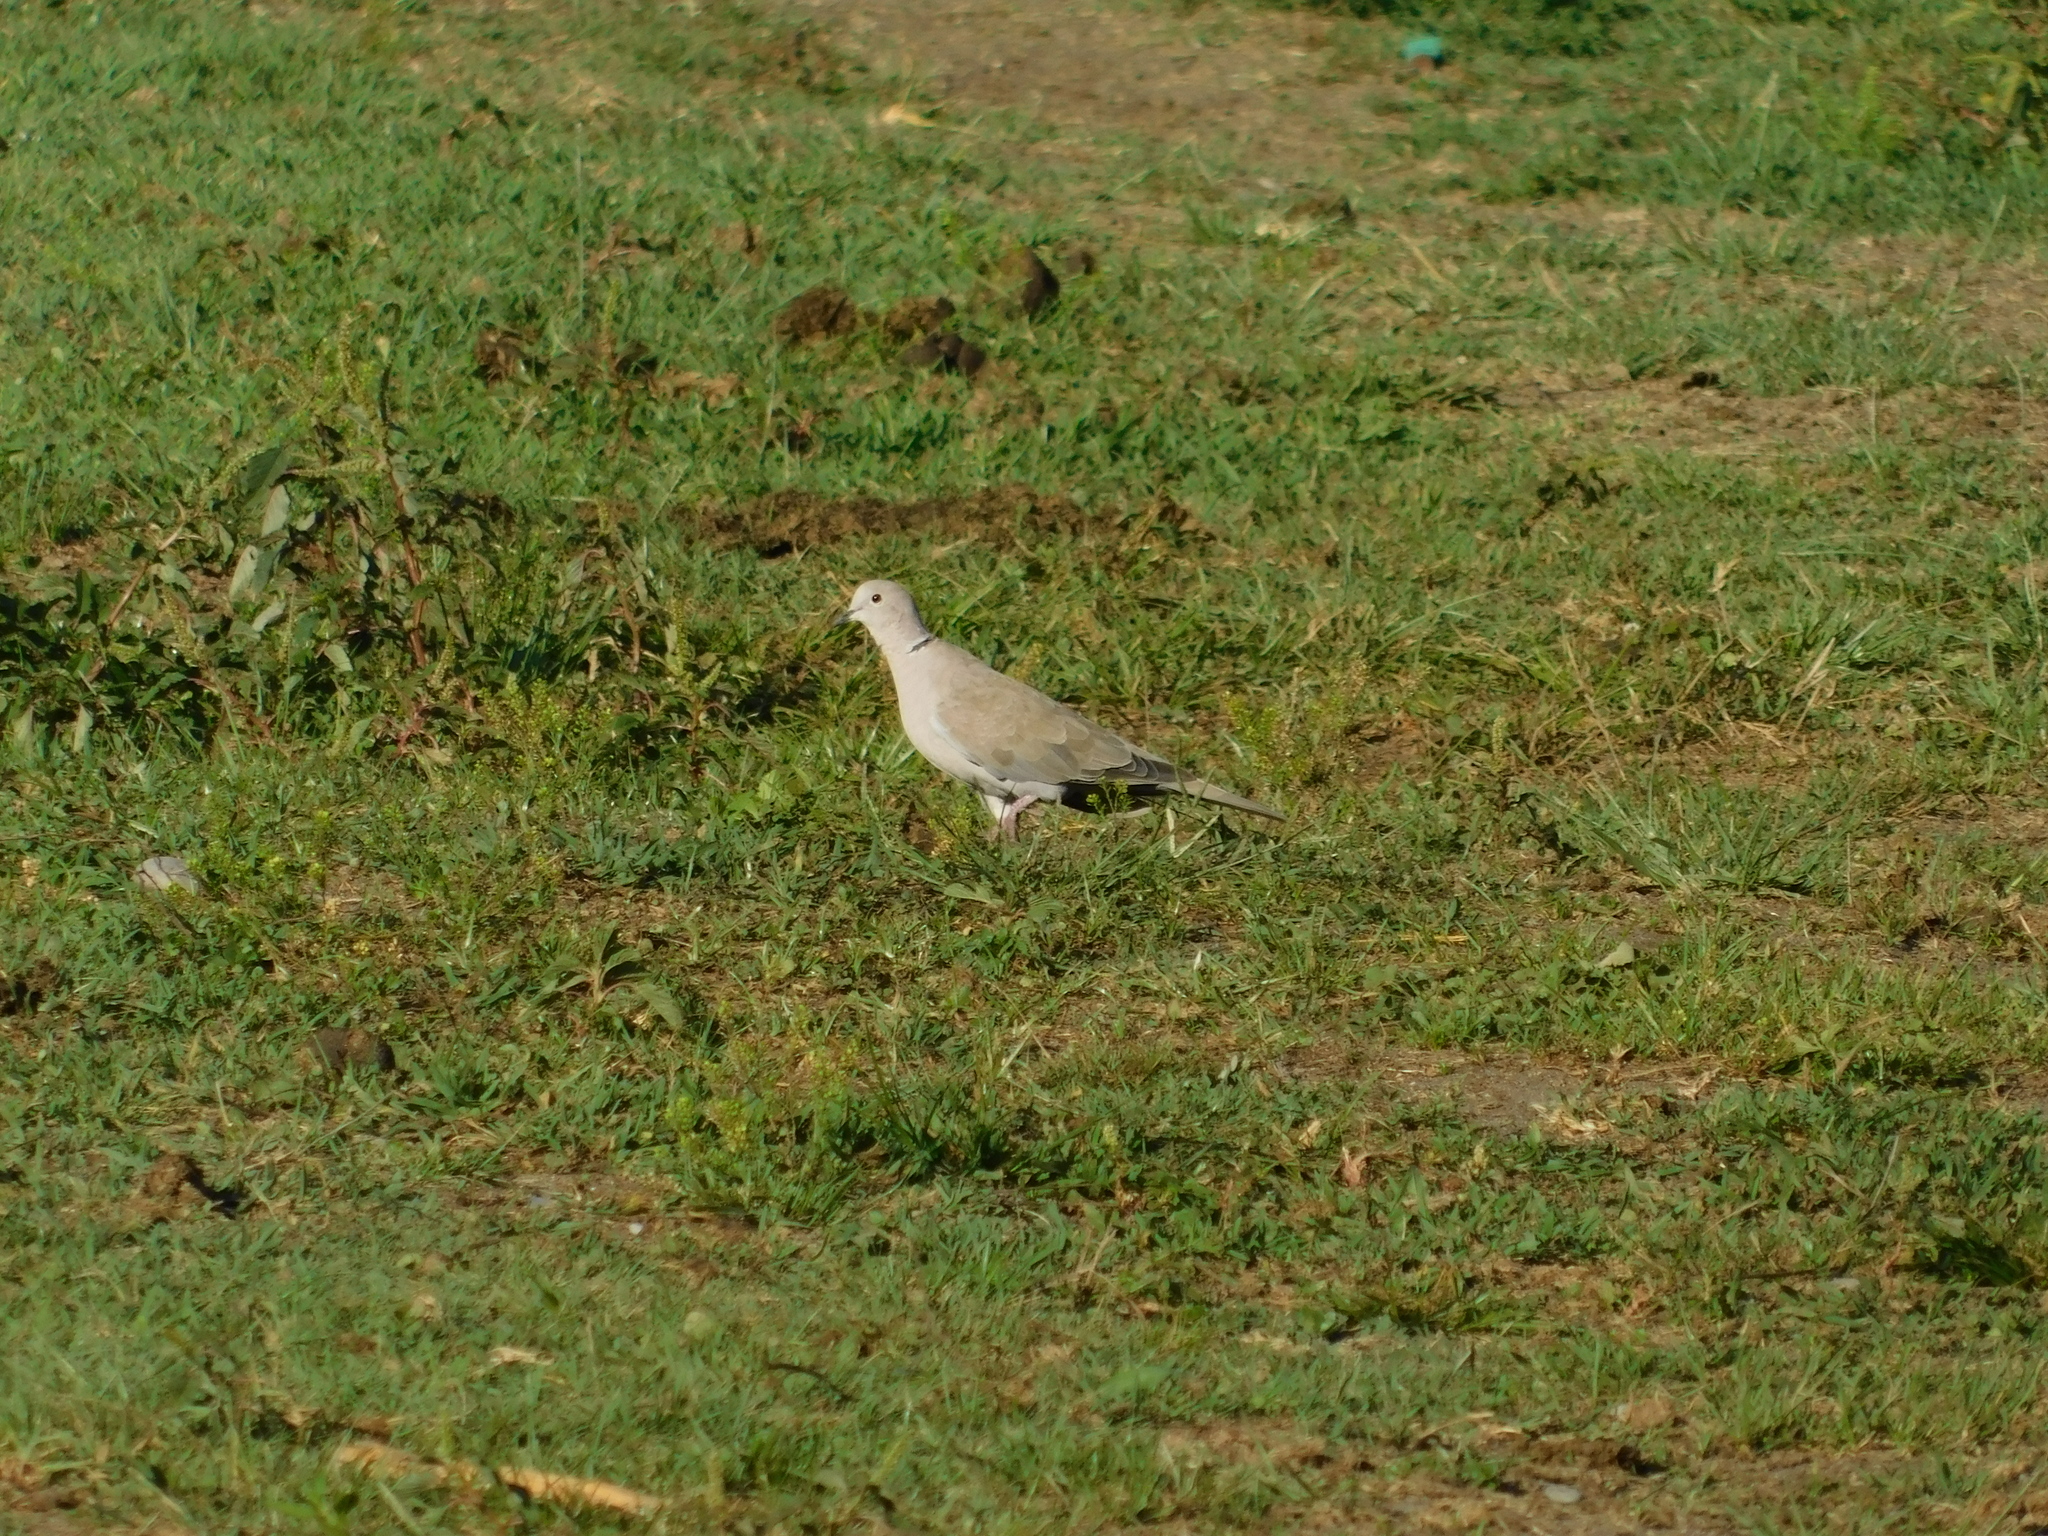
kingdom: Animalia
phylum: Chordata
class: Aves
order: Columbiformes
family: Columbidae
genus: Streptopelia
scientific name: Streptopelia decaocto
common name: Eurasian collared dove
